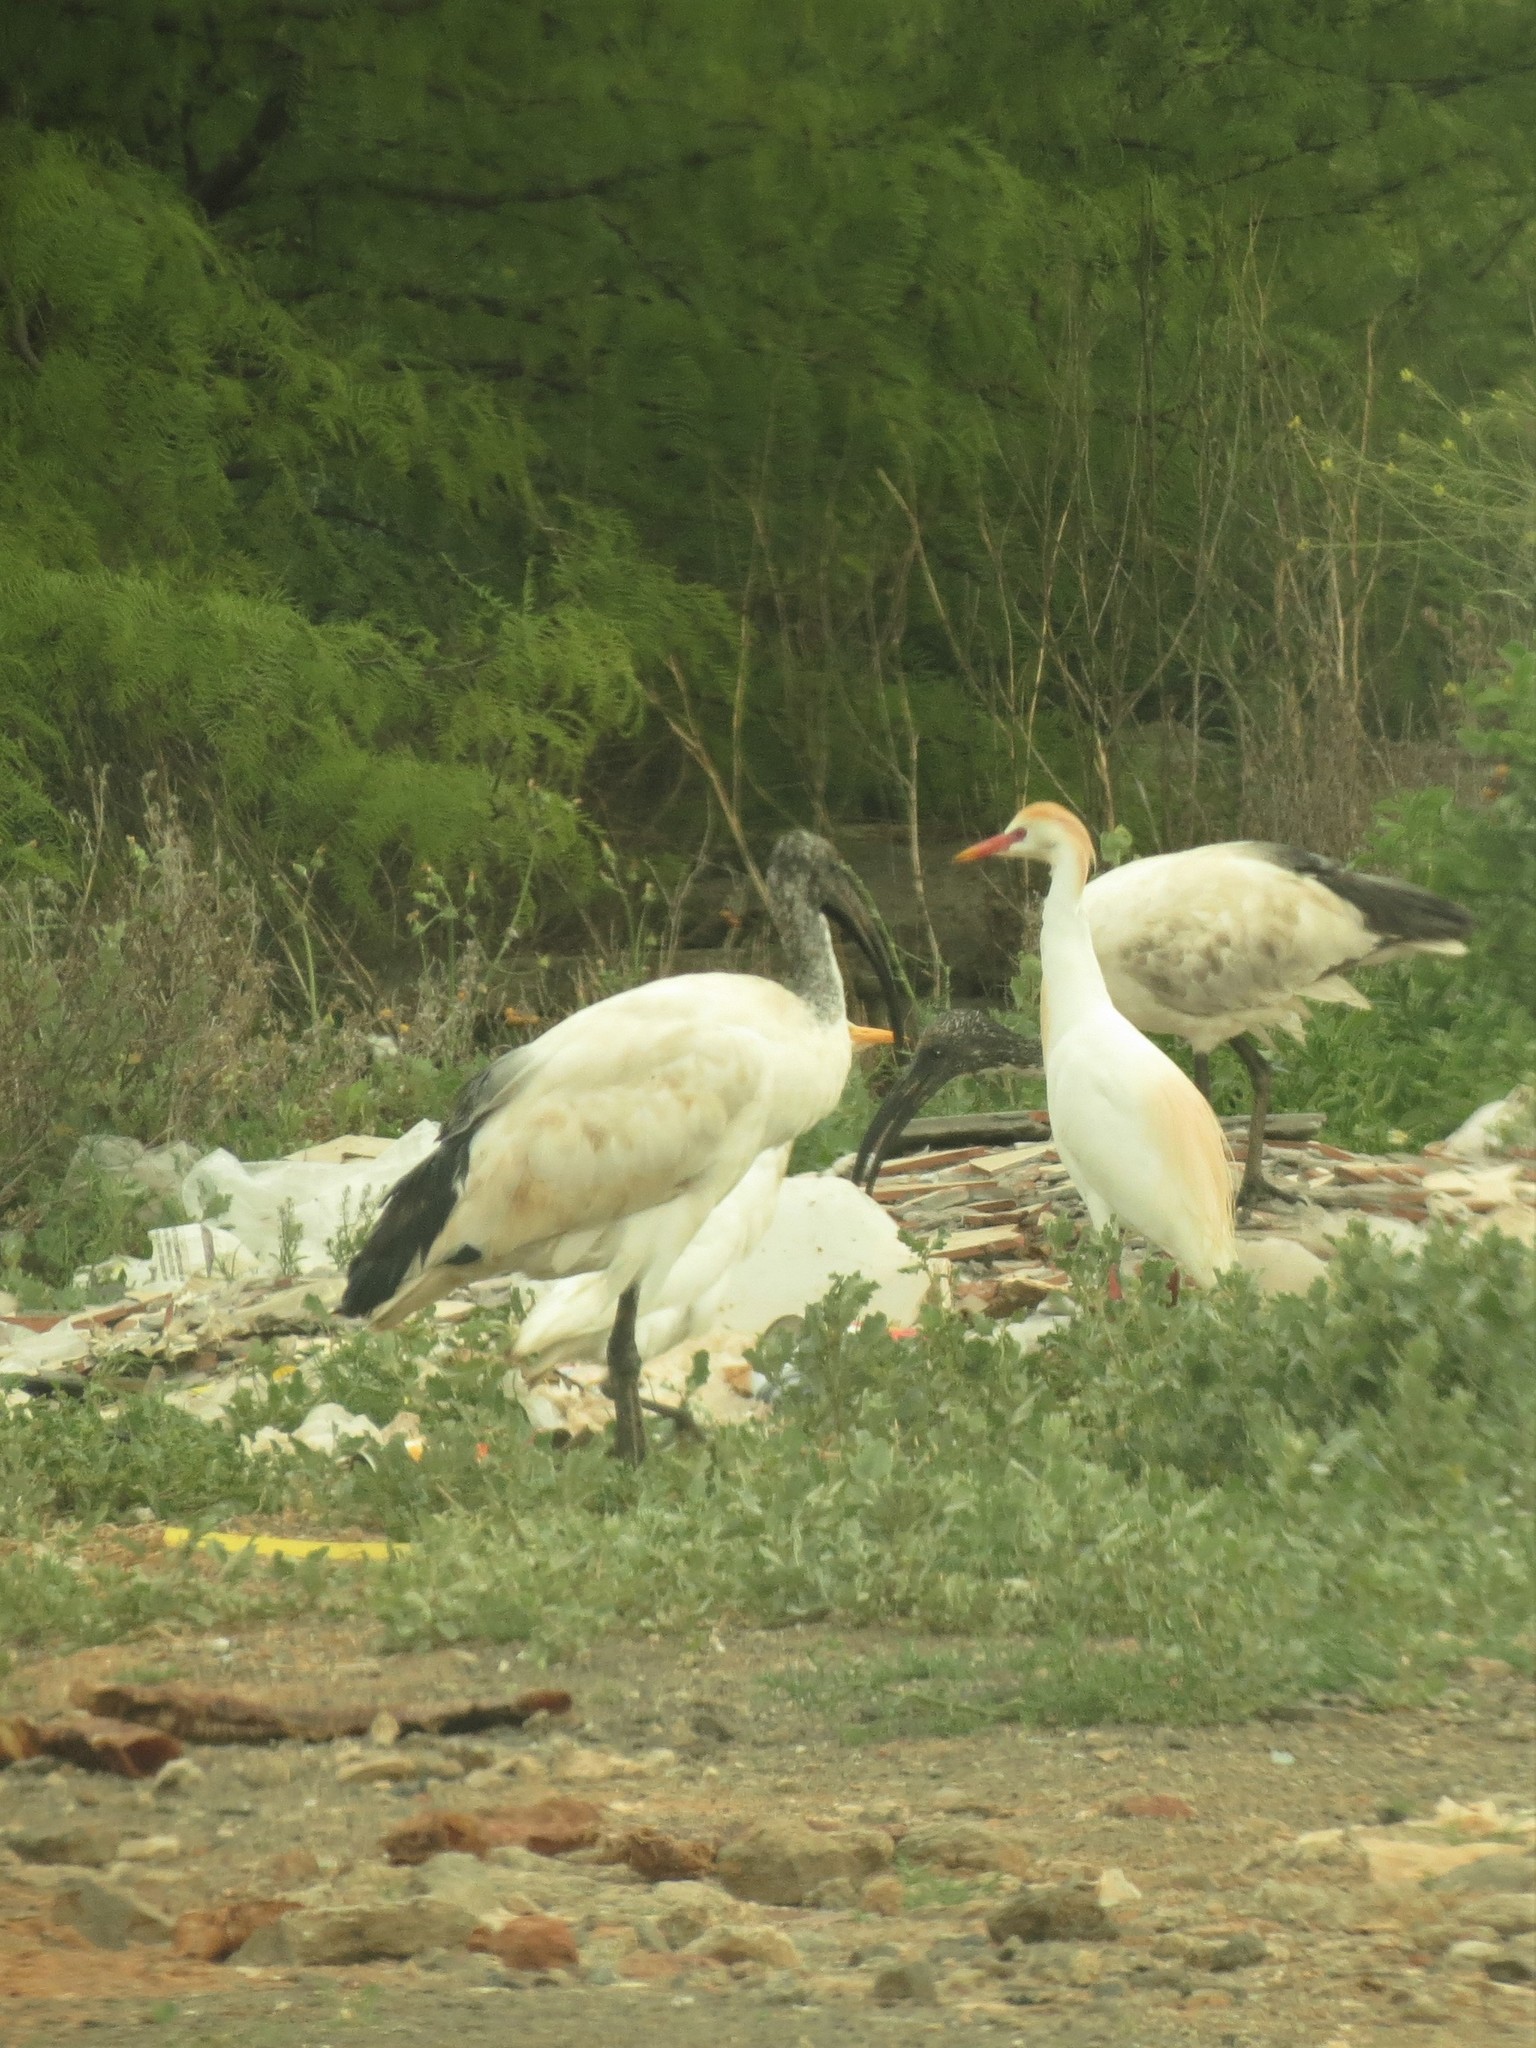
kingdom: Animalia
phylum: Chordata
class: Aves
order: Pelecaniformes
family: Threskiornithidae
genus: Threskiornis
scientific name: Threskiornis aethiopicus
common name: Sacred ibis
